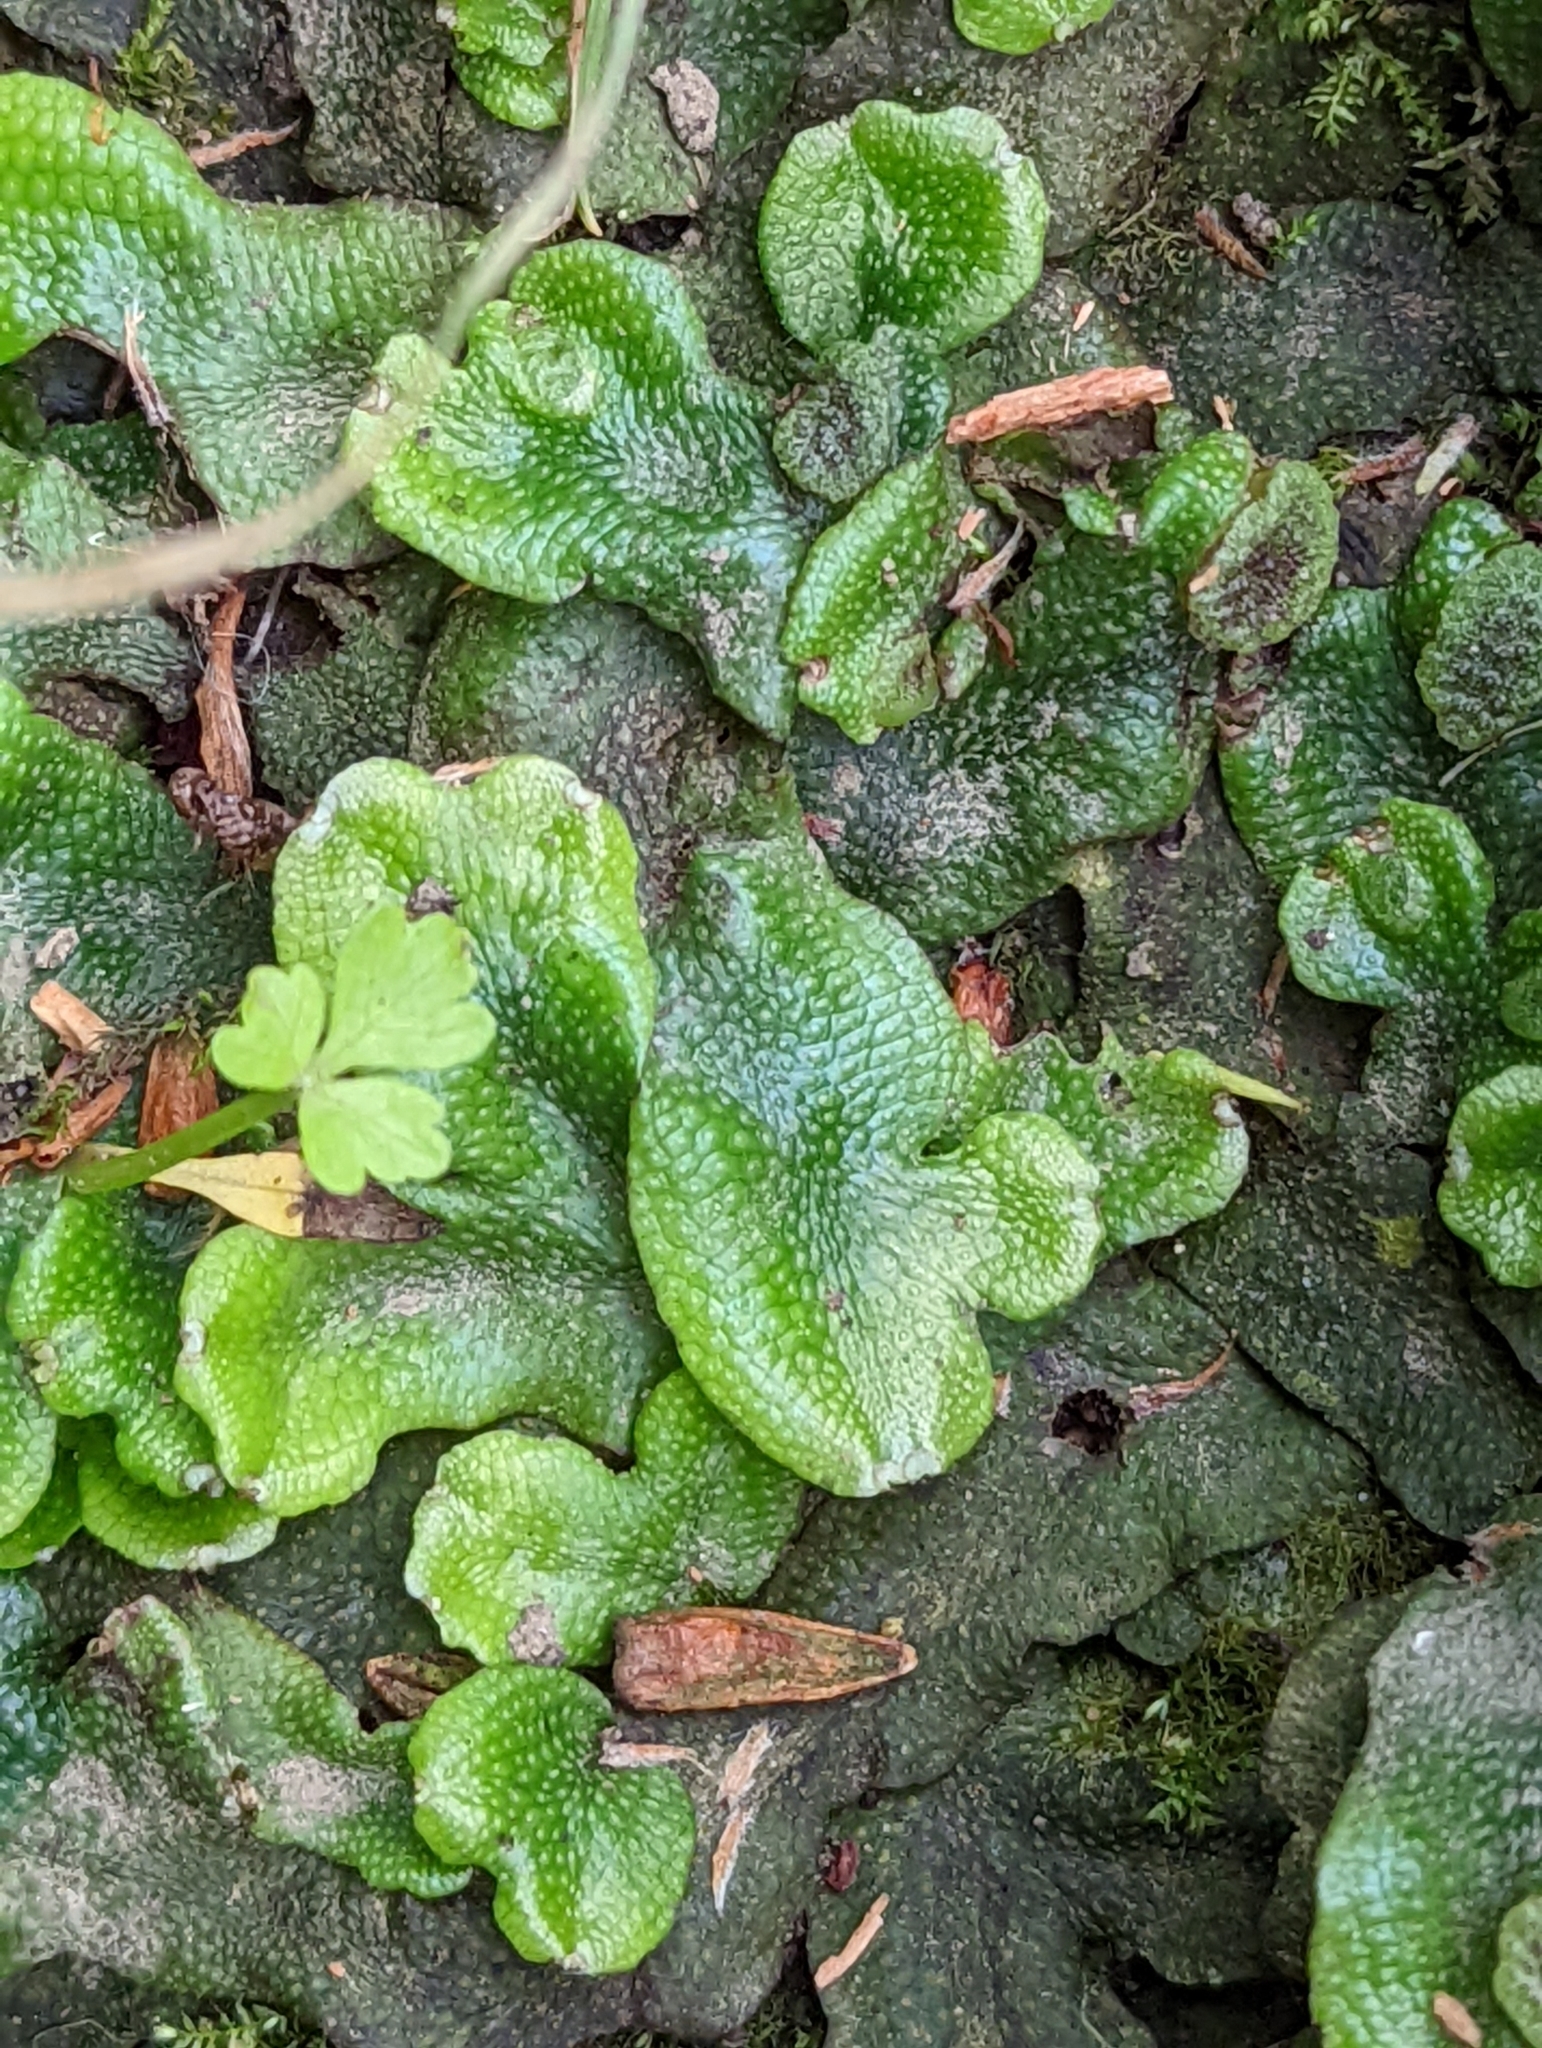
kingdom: Plantae
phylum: Marchantiophyta
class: Marchantiopsida
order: Marchantiales
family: Conocephalaceae
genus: Conocephalum
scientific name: Conocephalum conicum
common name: Great scented liverwort
